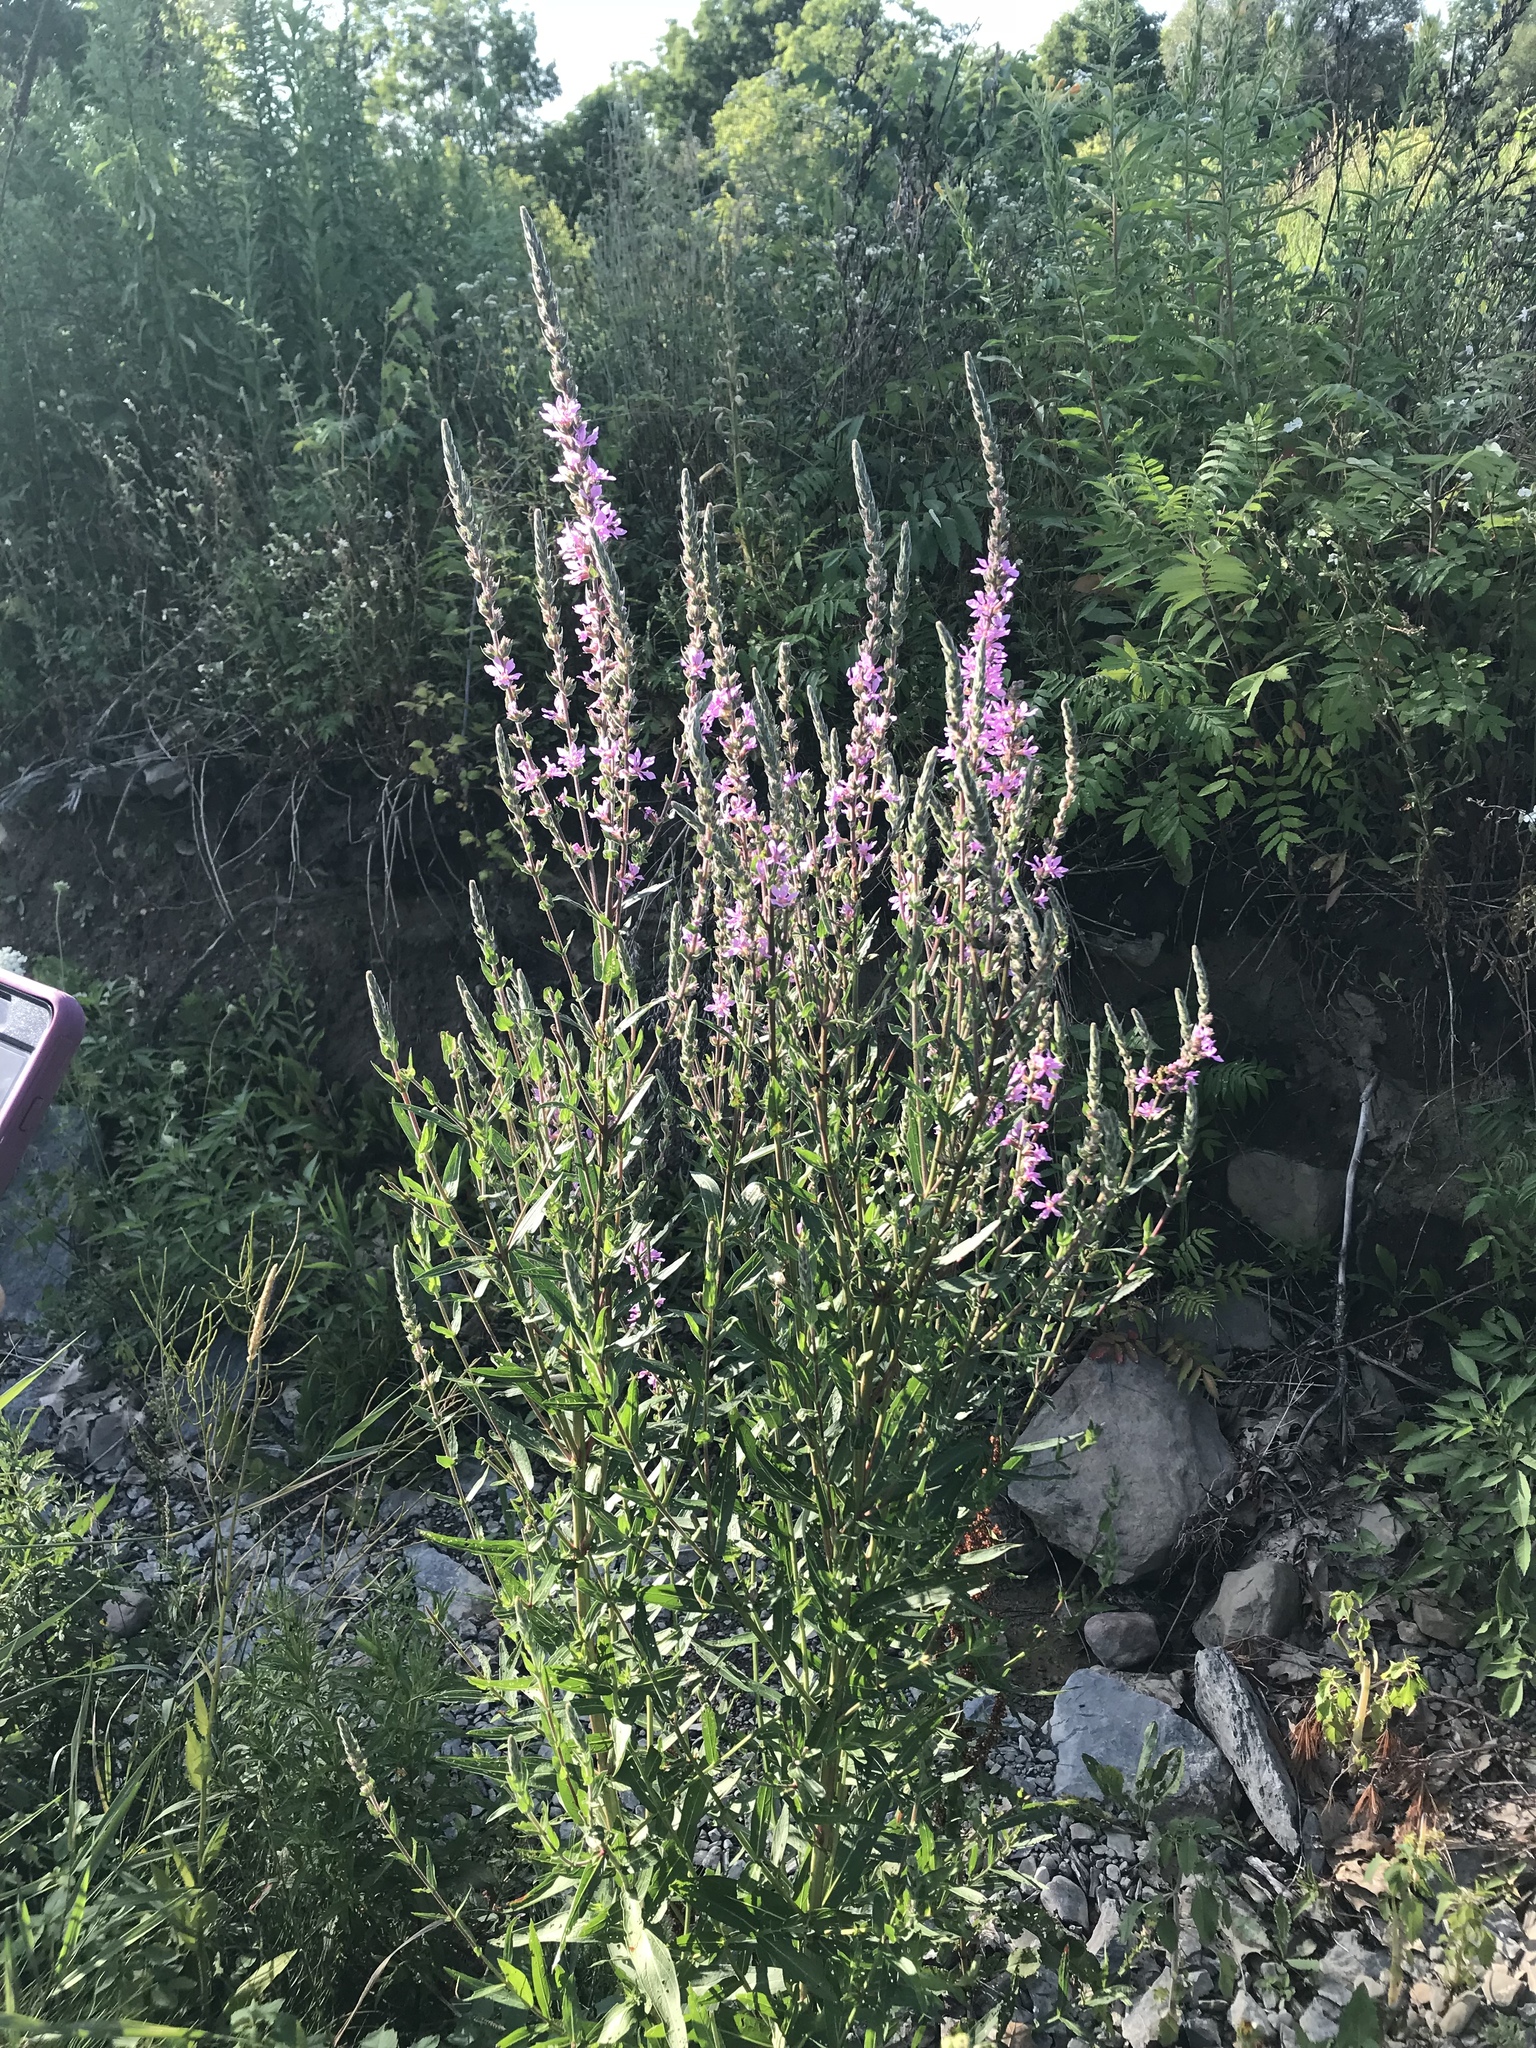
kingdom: Plantae
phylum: Tracheophyta
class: Magnoliopsida
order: Myrtales
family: Lythraceae
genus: Lythrum
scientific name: Lythrum salicaria
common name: Purple loosestrife
